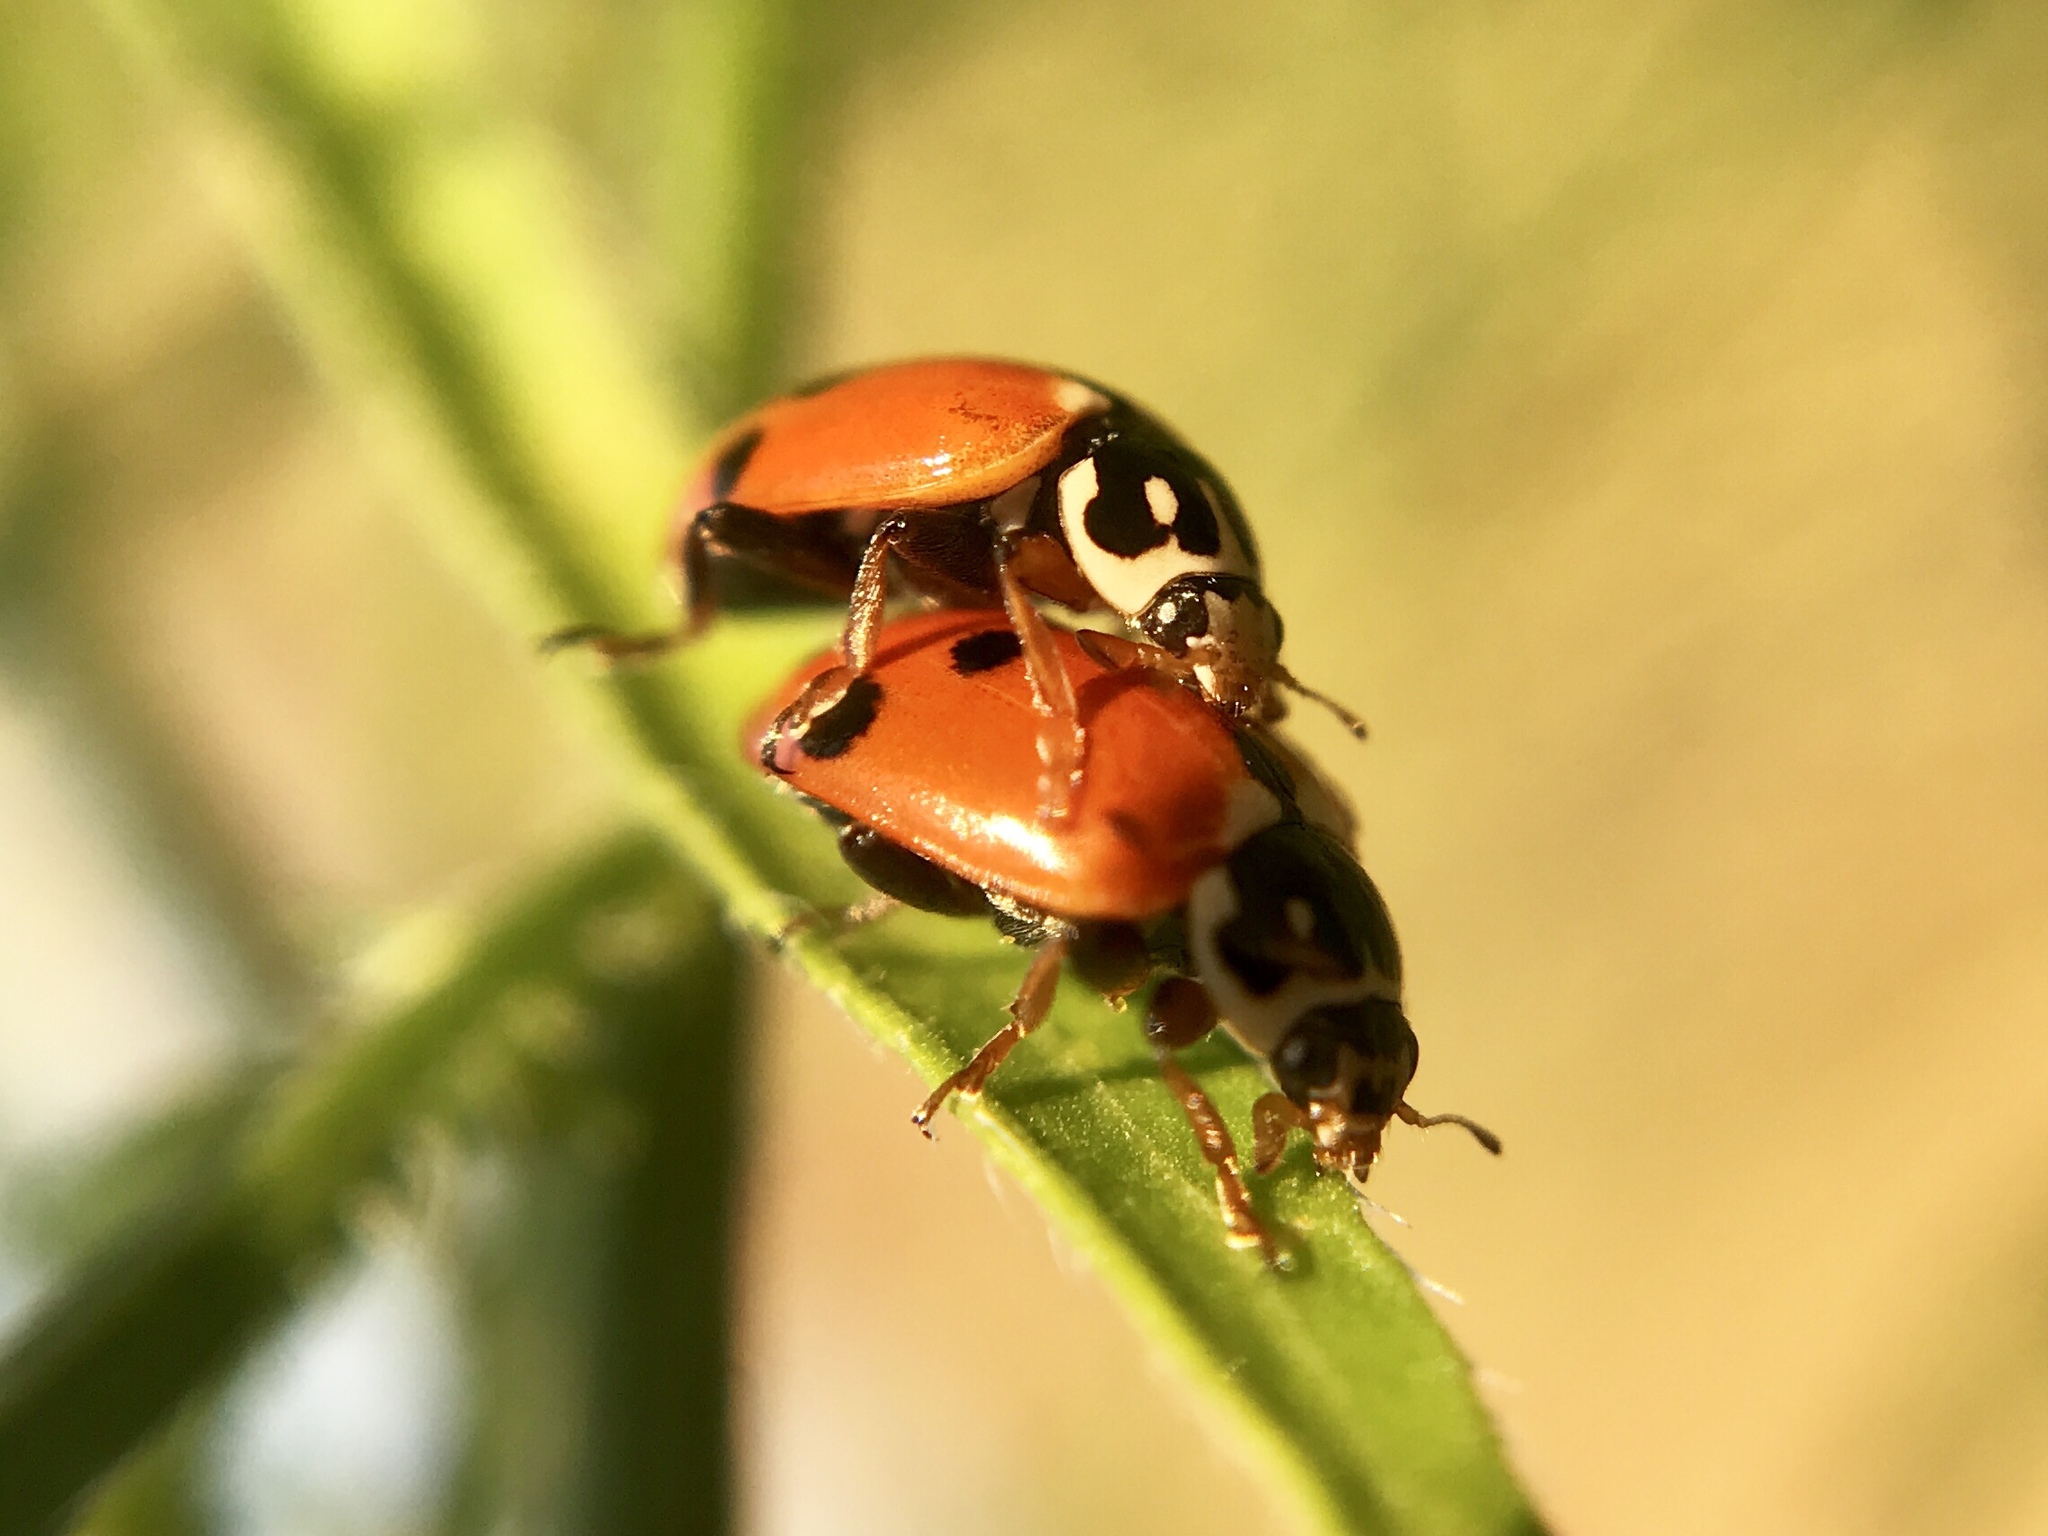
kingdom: Animalia
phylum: Arthropoda
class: Insecta
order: Coleoptera
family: Coccinellidae
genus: Hippodamia
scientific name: Hippodamia variegata
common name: Ladybird beetle
